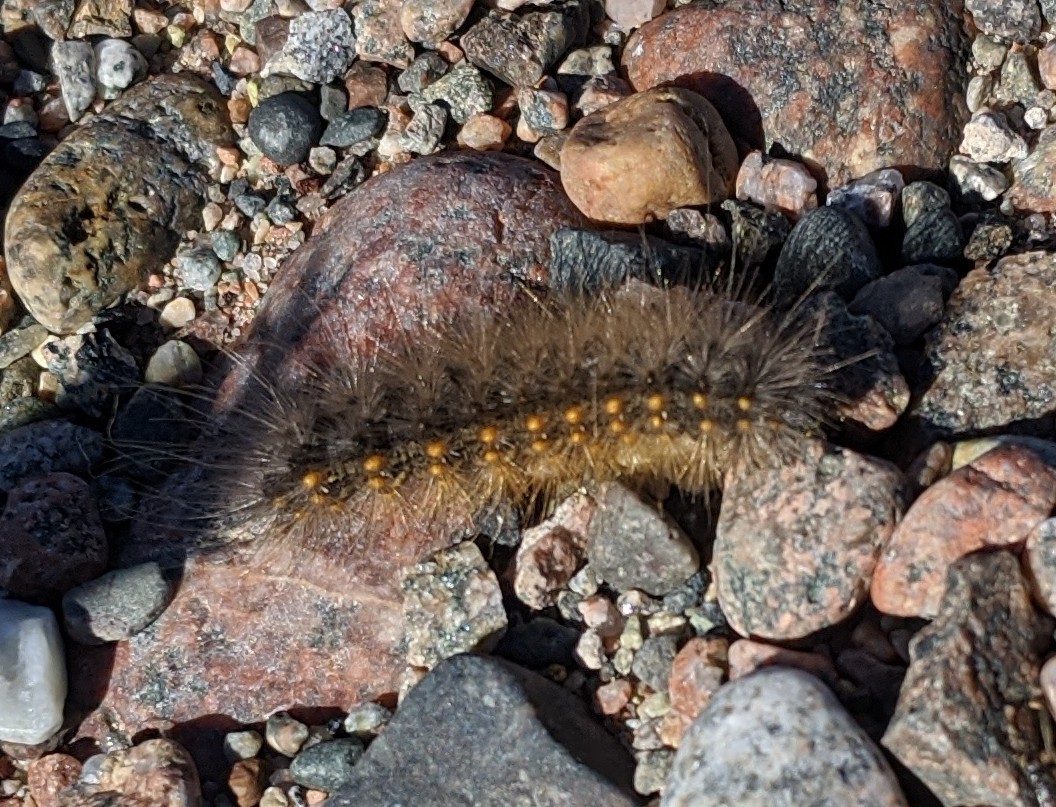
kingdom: Animalia
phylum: Arthropoda
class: Insecta
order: Lepidoptera
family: Erebidae
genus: Estigmene
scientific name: Estigmene acrea
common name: Salt marsh moth
